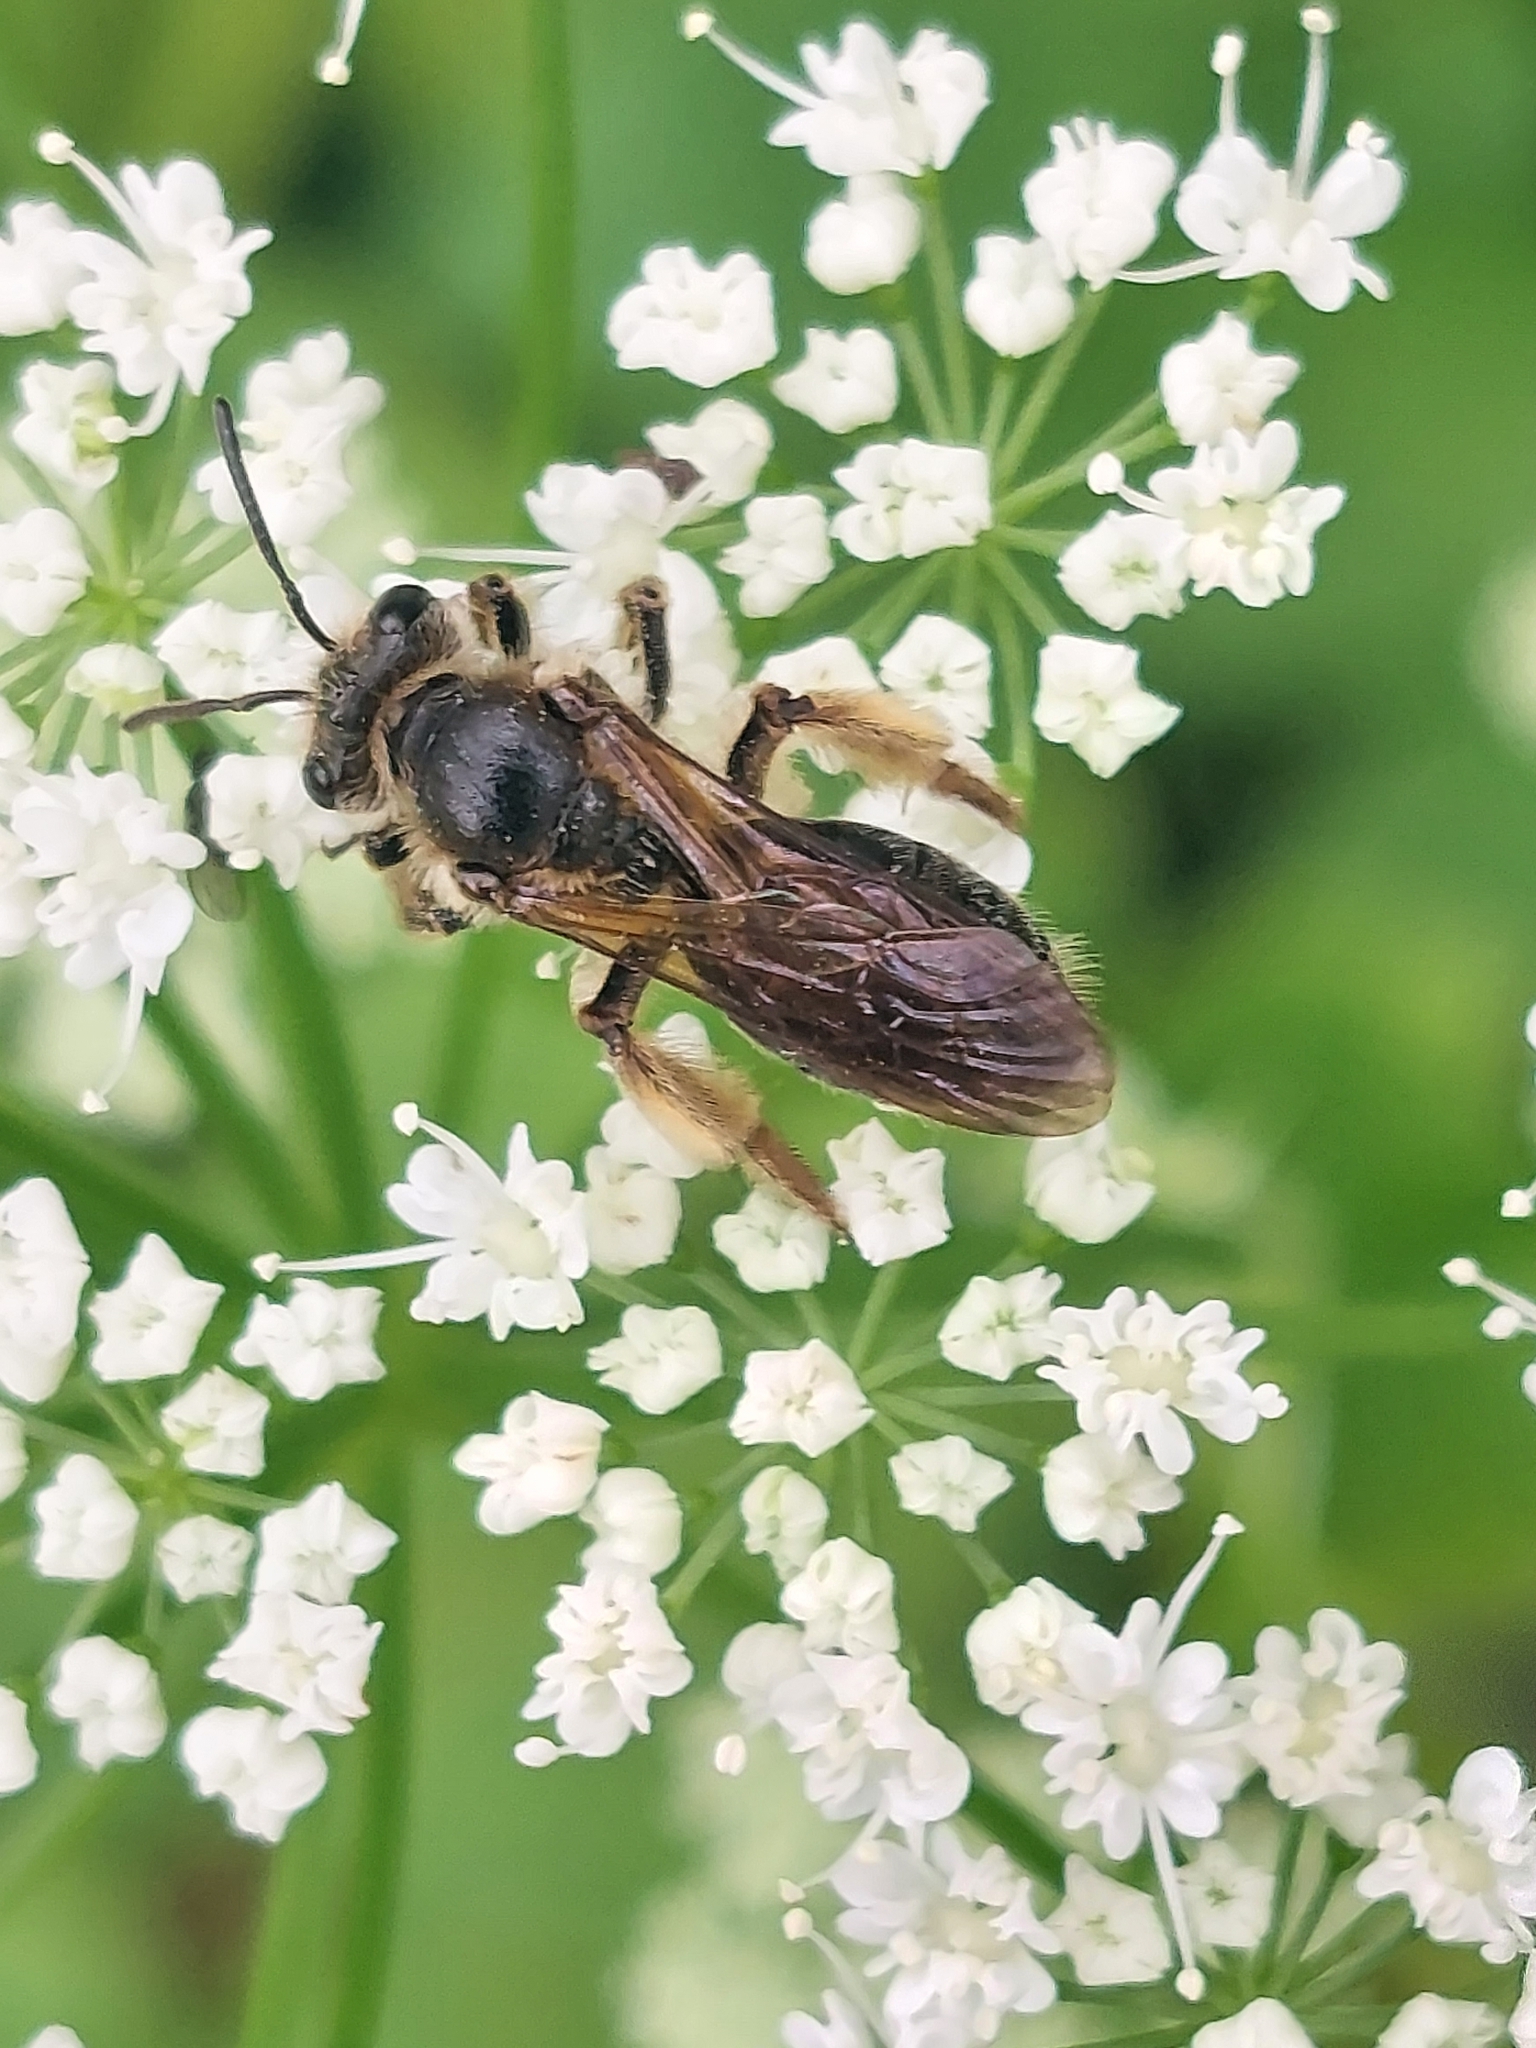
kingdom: Animalia
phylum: Arthropoda
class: Insecta
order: Hymenoptera
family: Andrenidae
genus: Andrena
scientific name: Andrena crataegi
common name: Hawthorn mining bee
